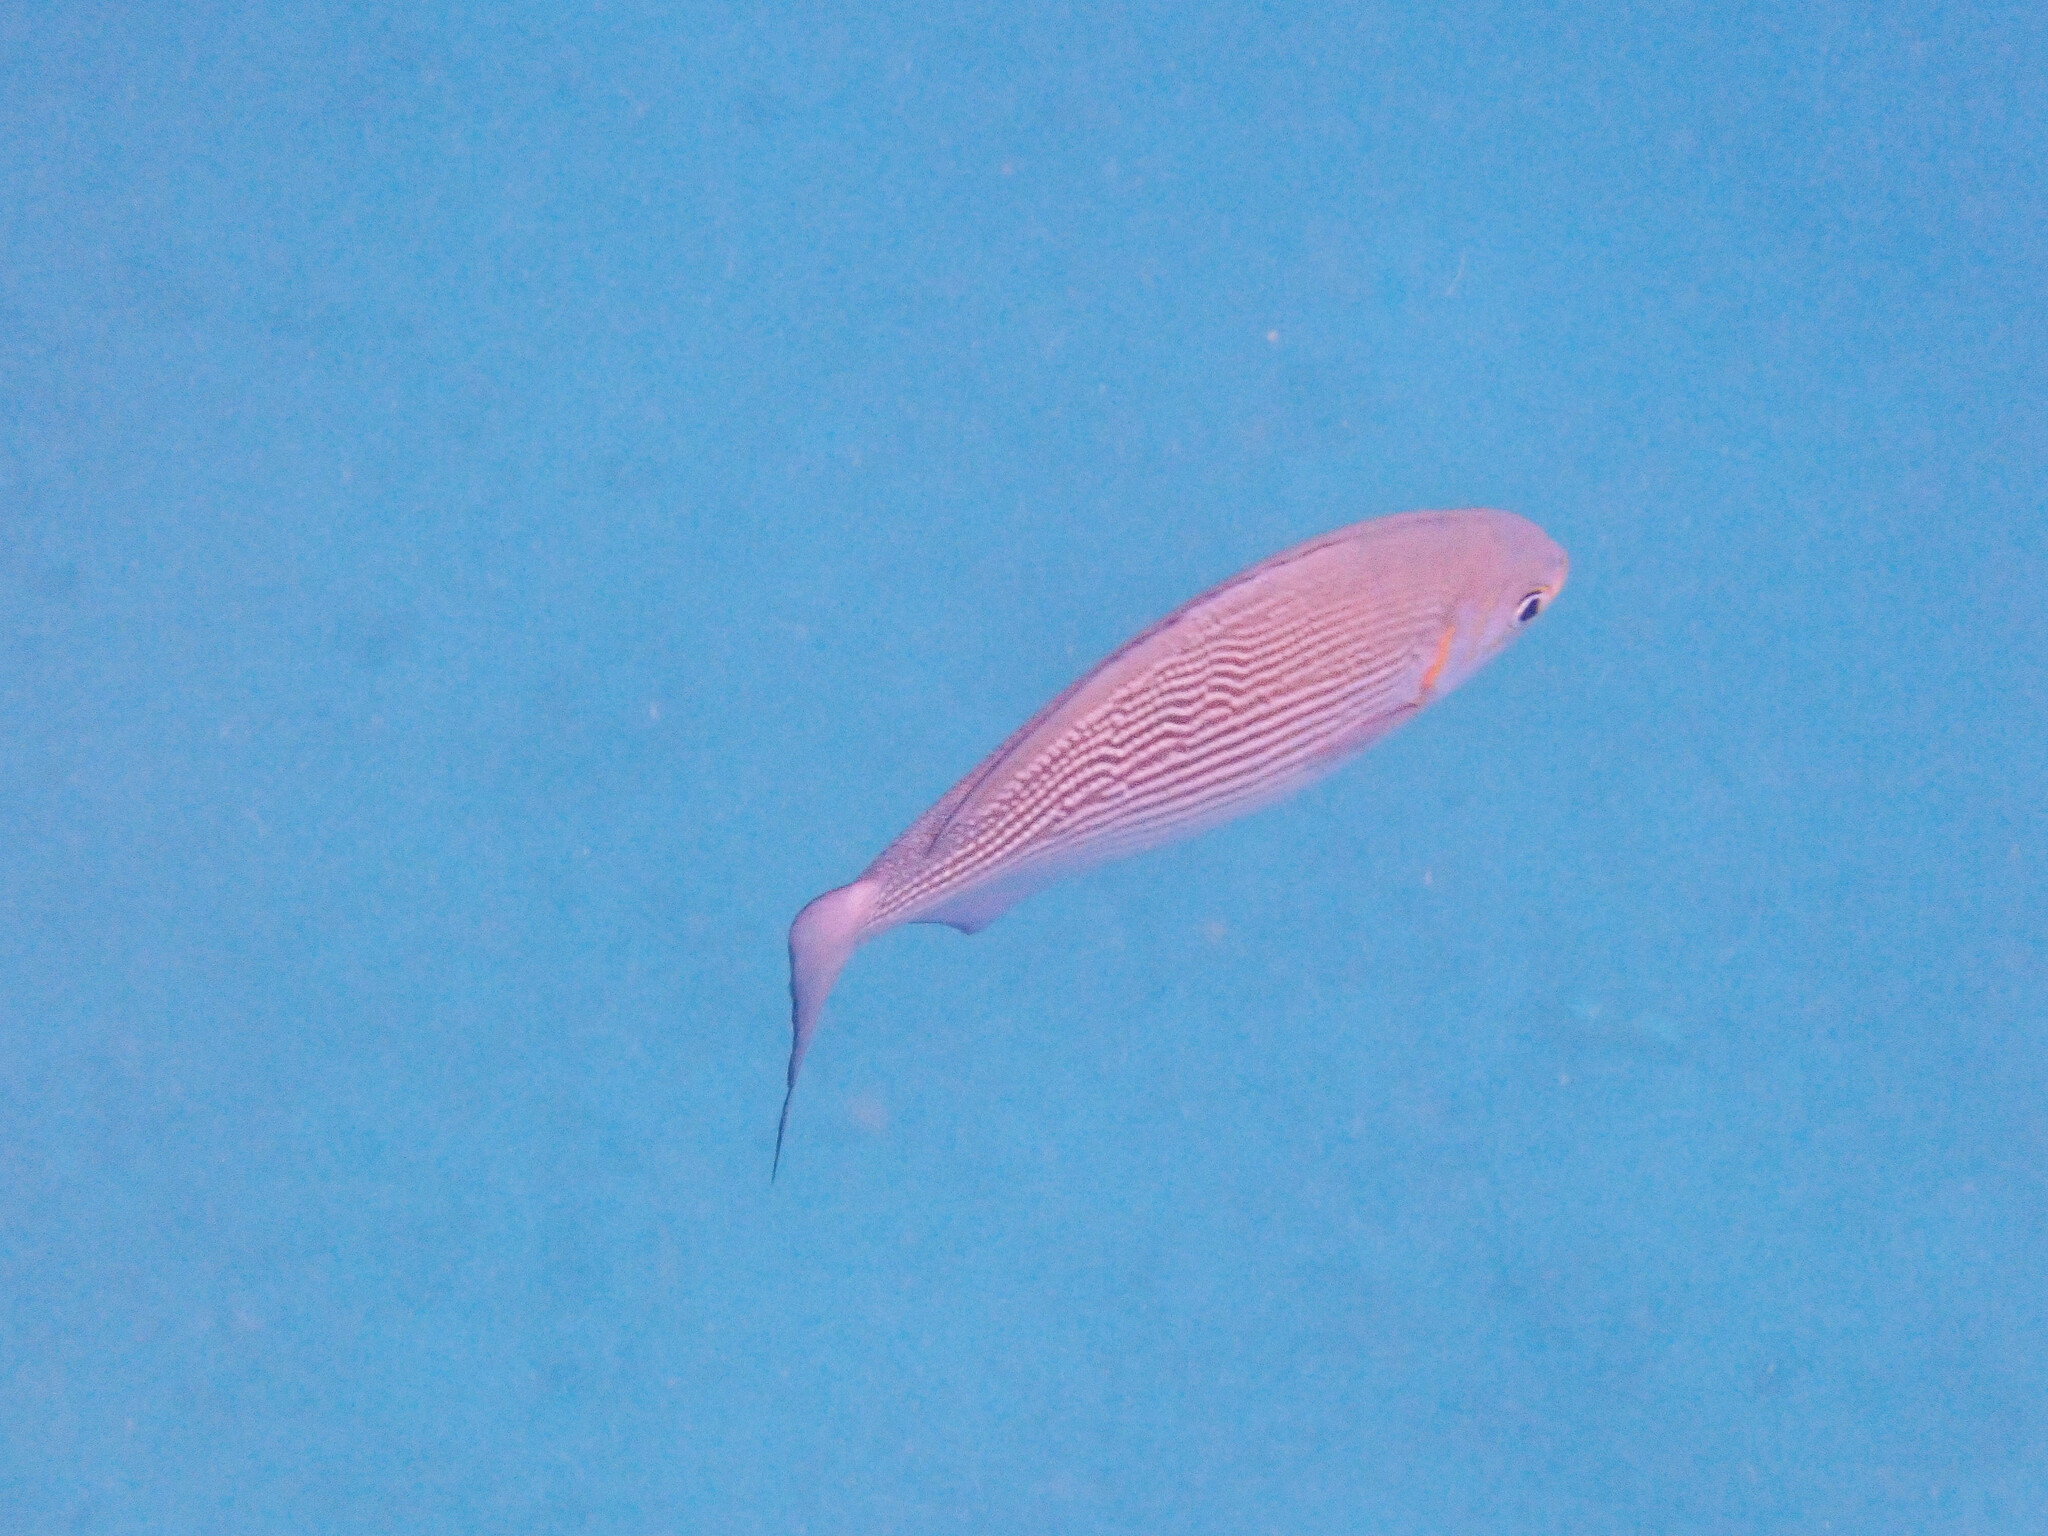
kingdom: Animalia
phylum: Chordata
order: Perciformes
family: Kyphosidae
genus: Kyphosus
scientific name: Kyphosus vaigiensis
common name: Brassy chub
